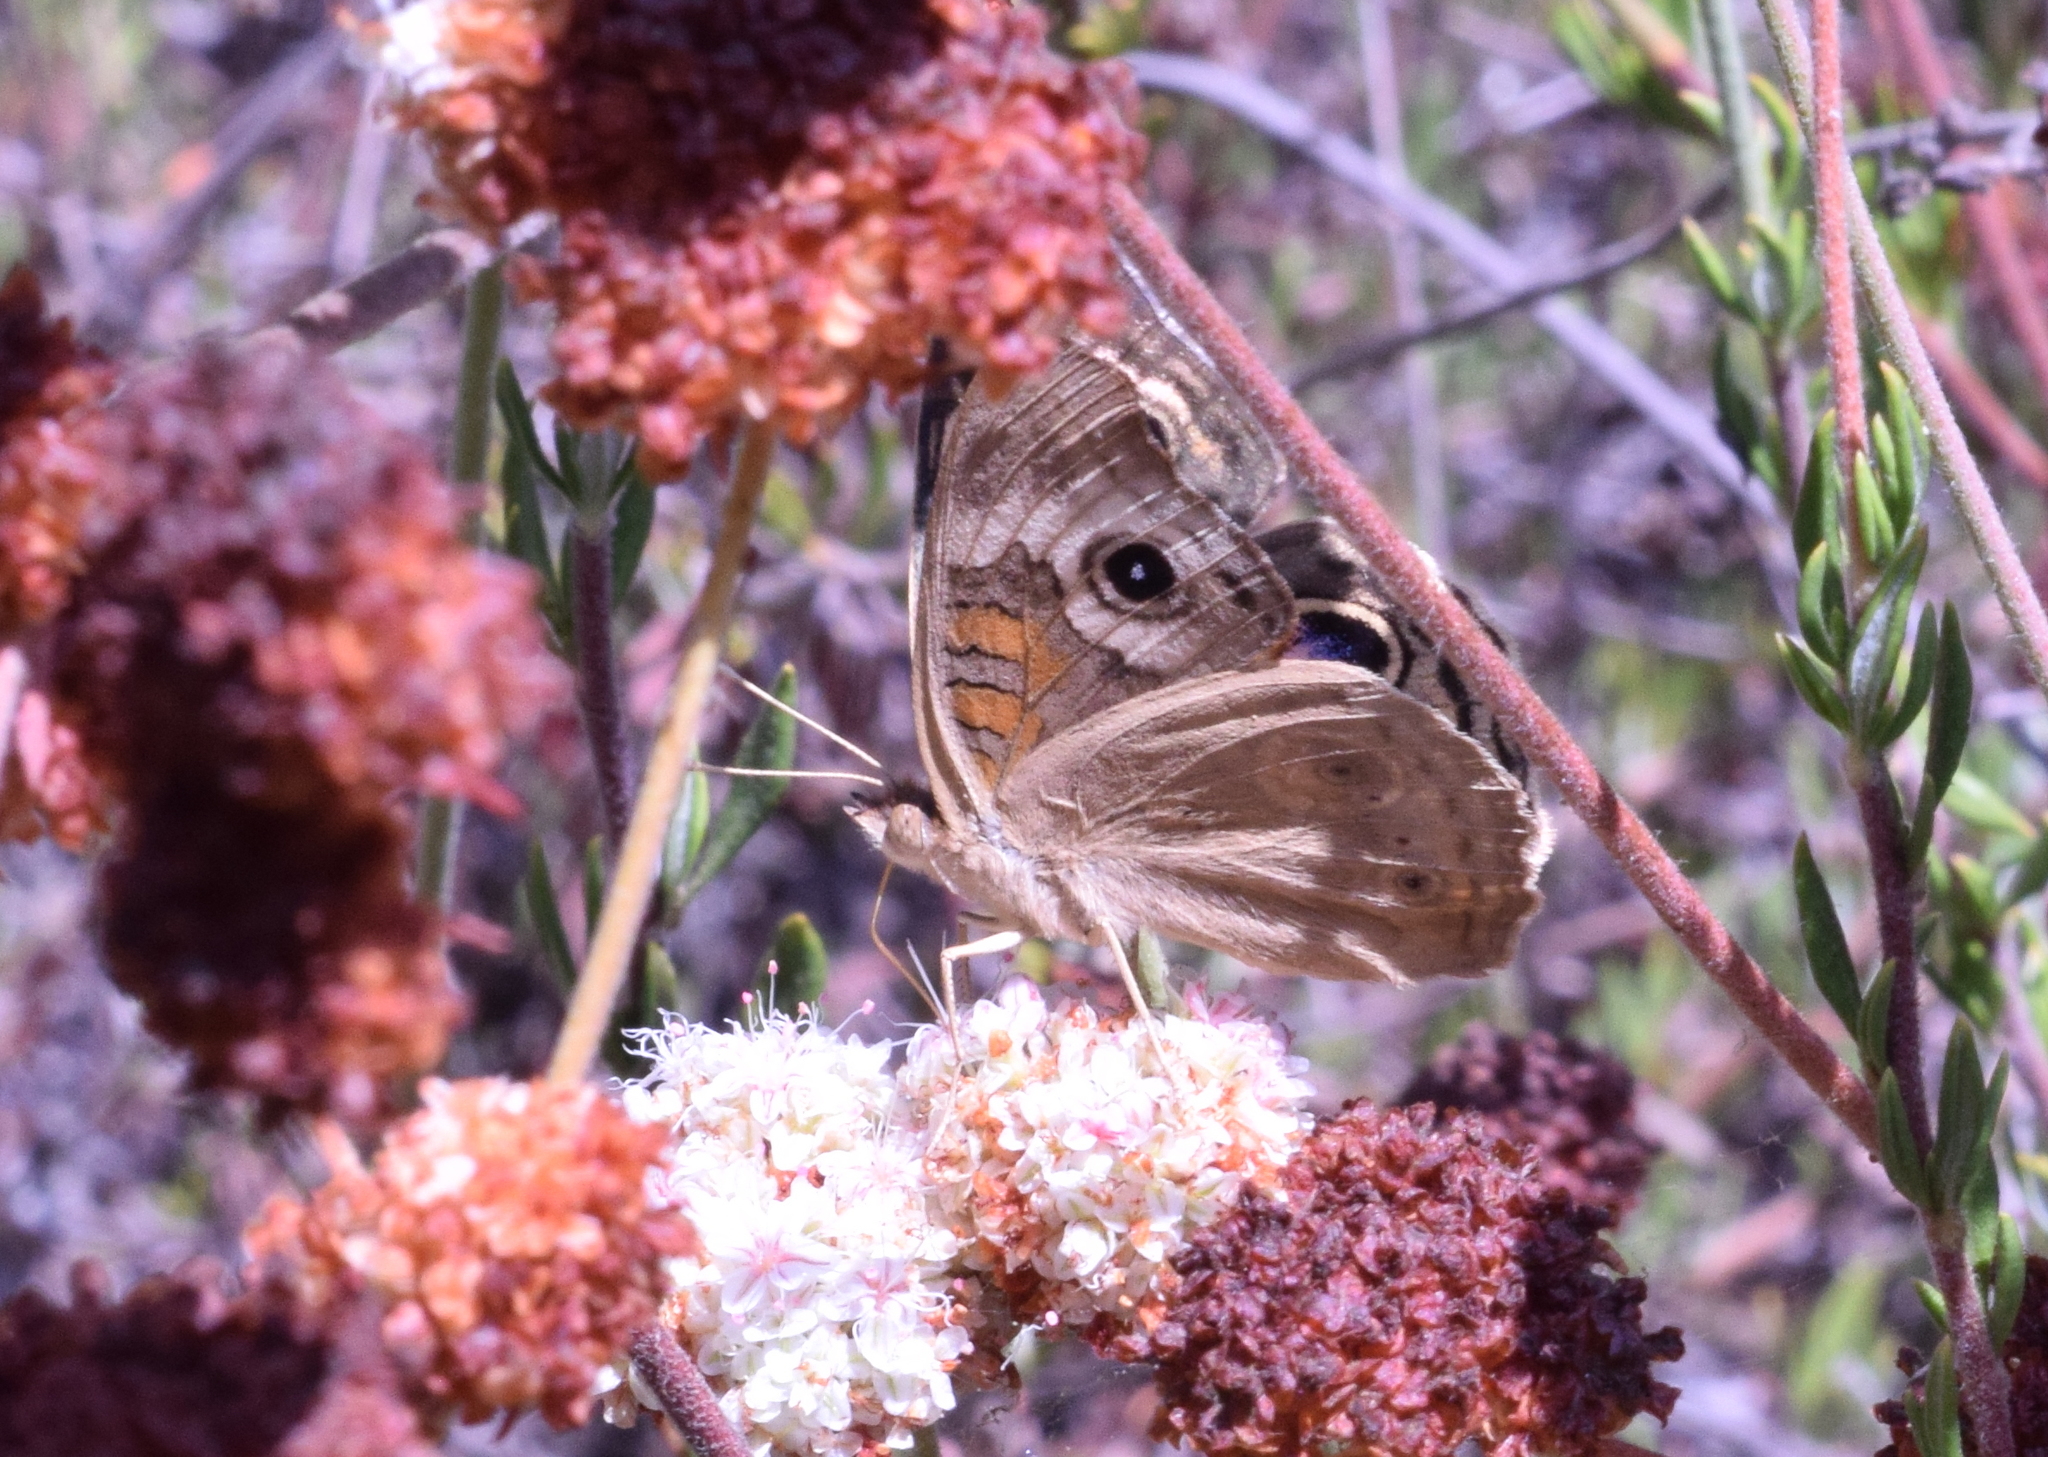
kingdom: Animalia
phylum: Arthropoda
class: Insecta
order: Lepidoptera
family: Nymphalidae
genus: Junonia
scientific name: Junonia grisea
